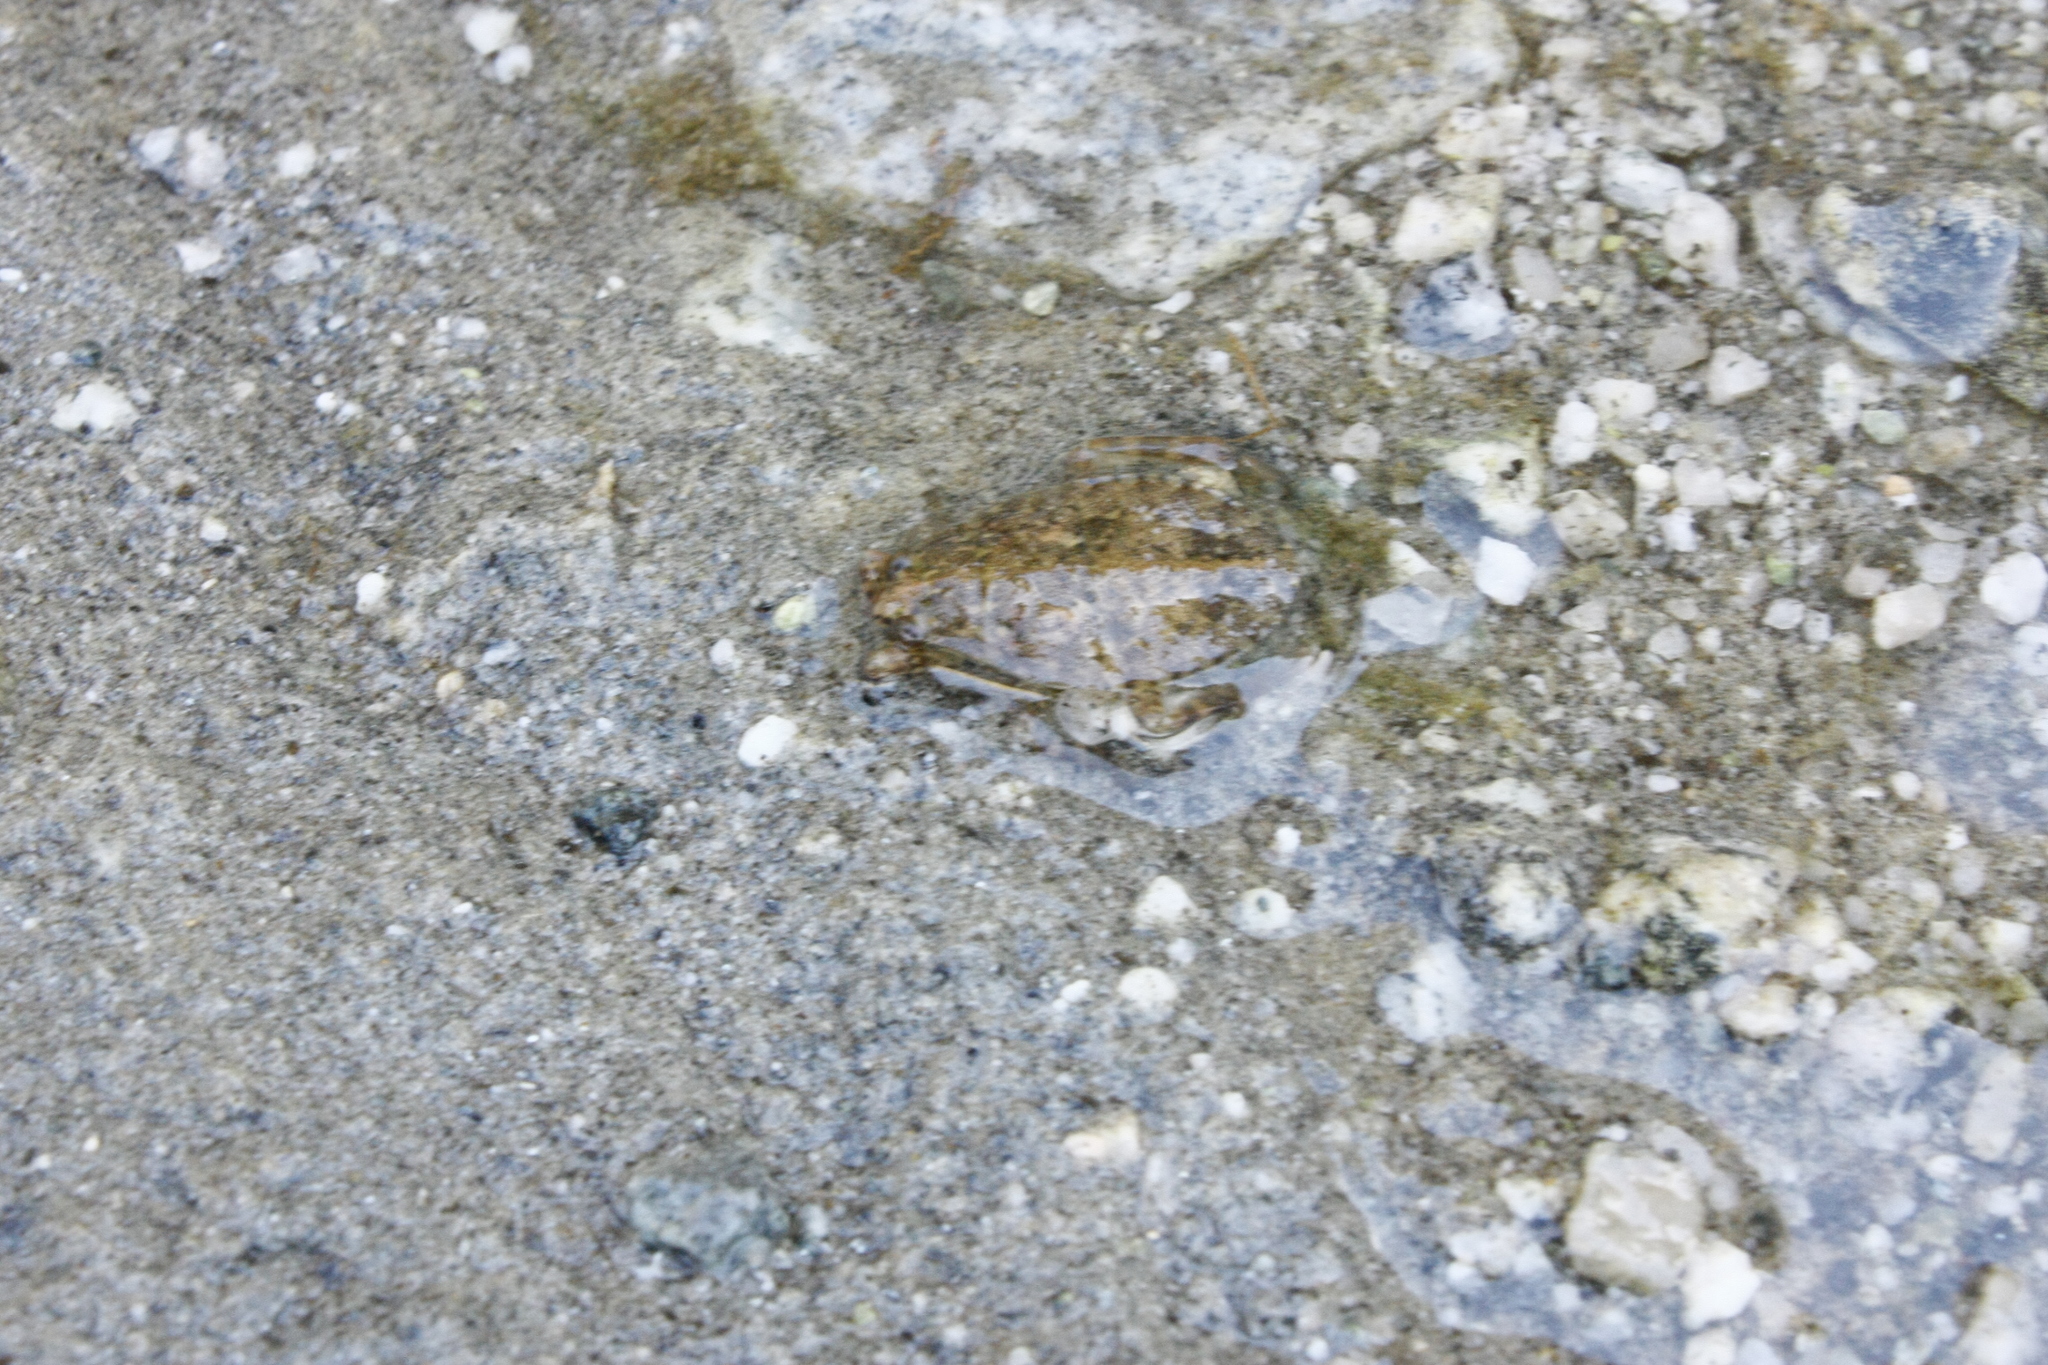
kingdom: Animalia
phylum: Arthropoda
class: Insecta
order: Hemiptera
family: Belostomatidae
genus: Abedus
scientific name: Abedus indentatus
